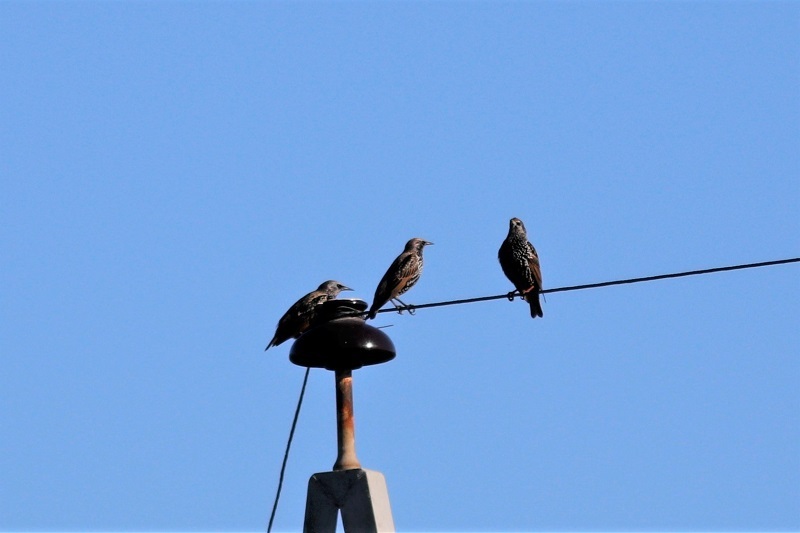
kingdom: Animalia
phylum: Chordata
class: Aves
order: Passeriformes
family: Sturnidae
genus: Sturnus
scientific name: Sturnus vulgaris
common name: Common starling
